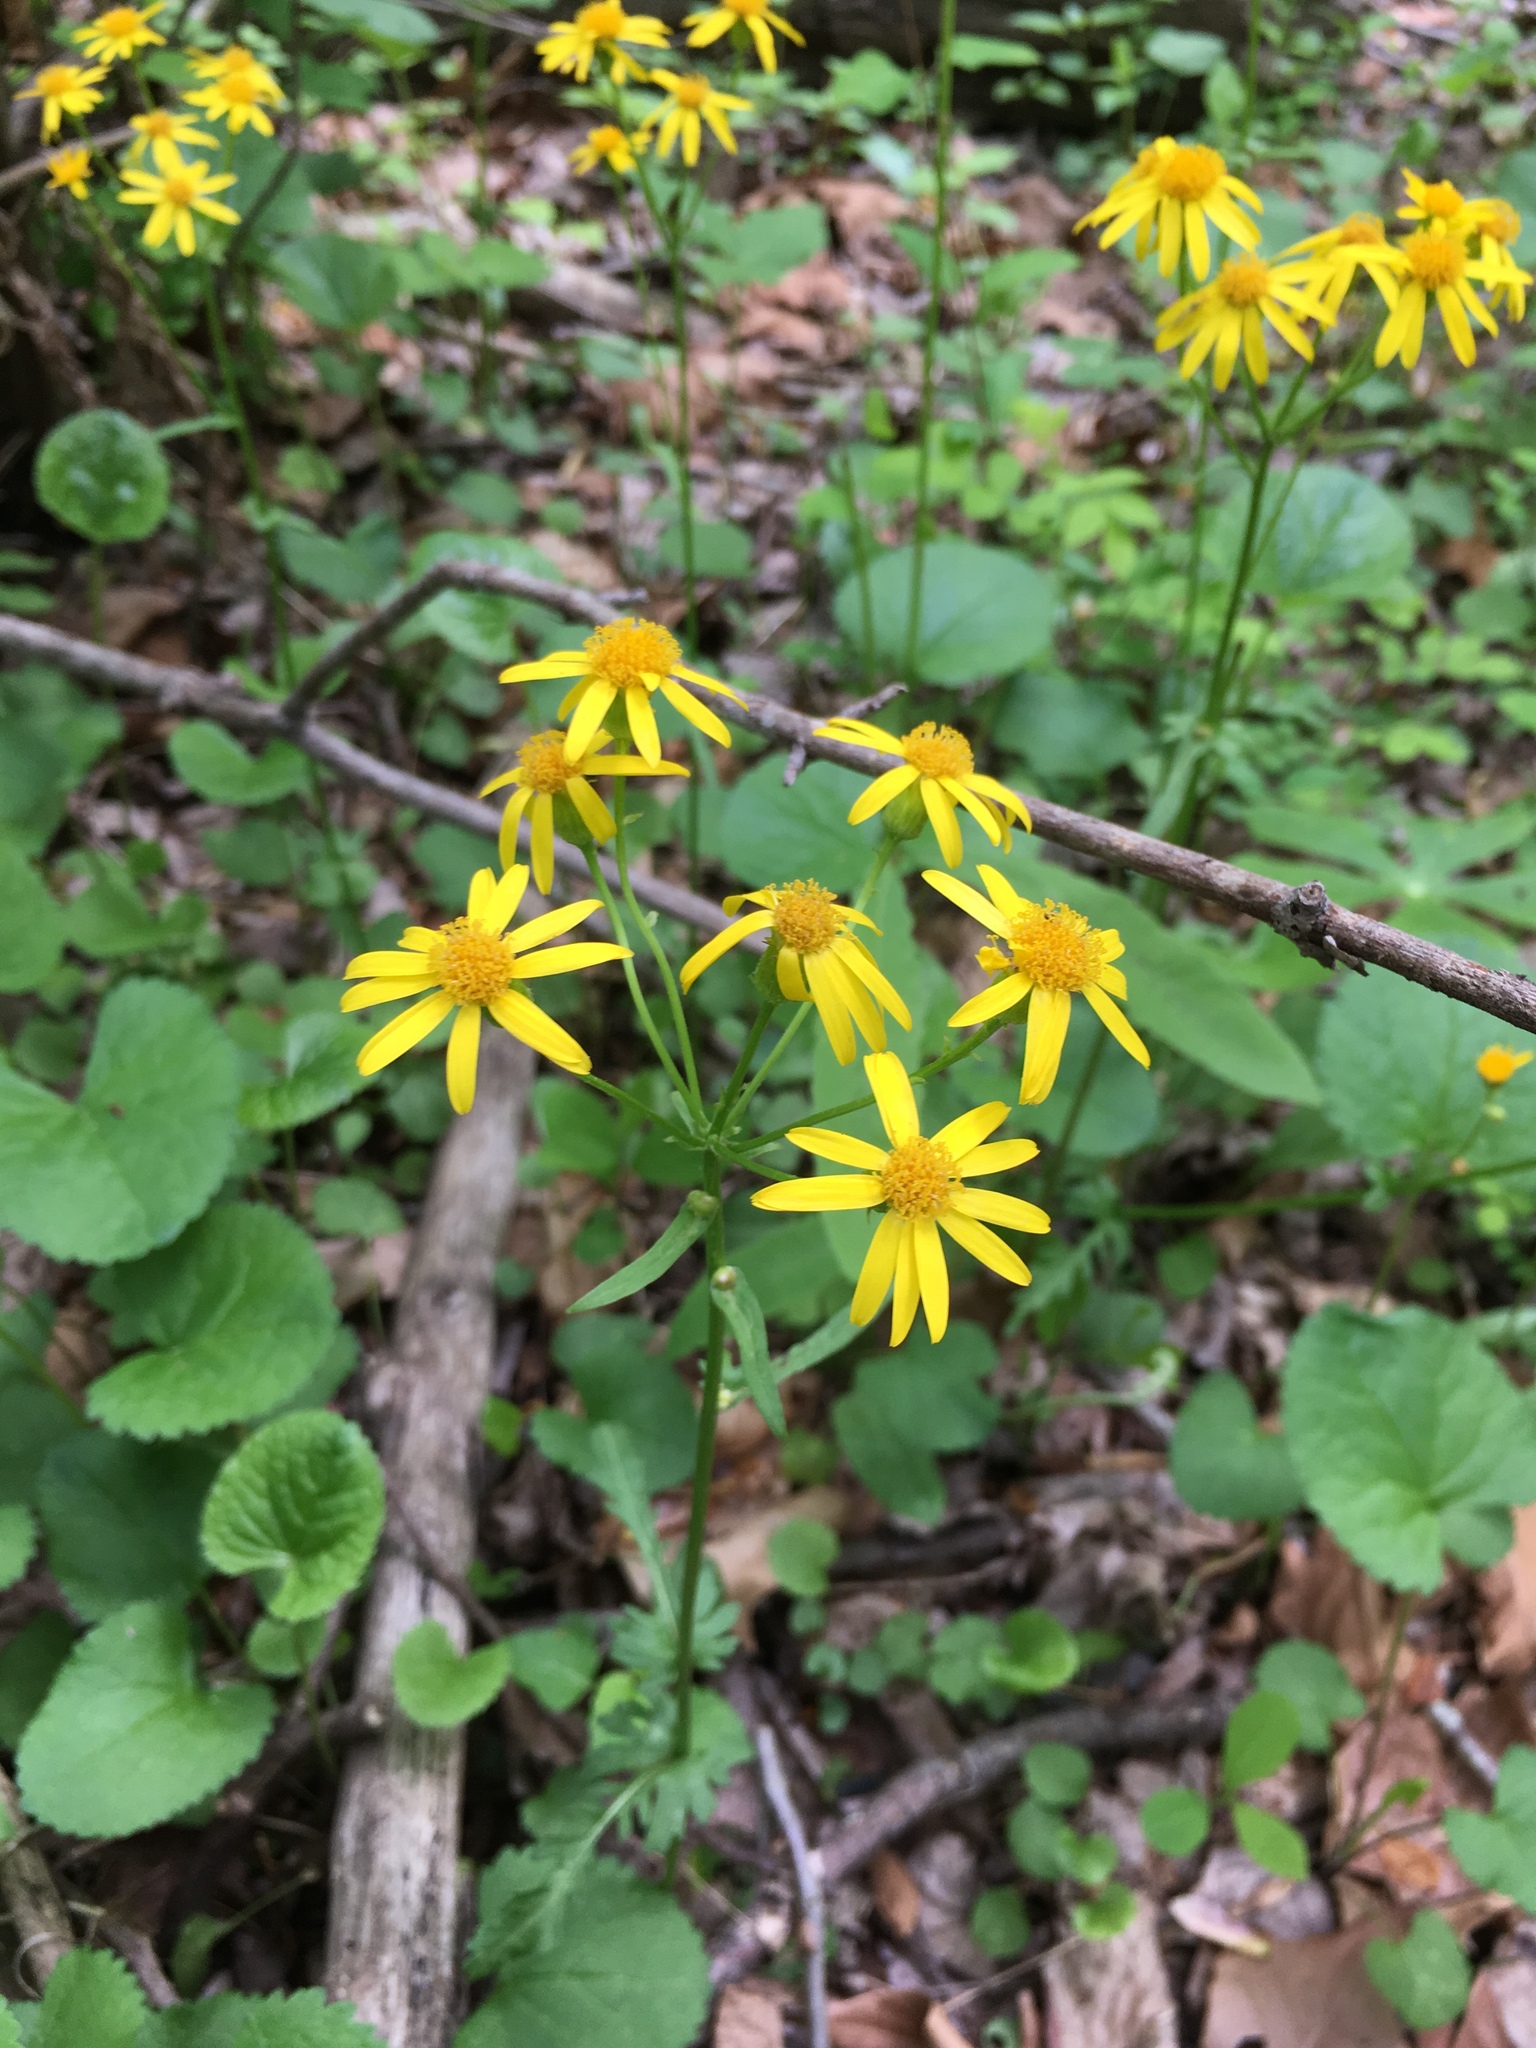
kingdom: Plantae
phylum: Tracheophyta
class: Magnoliopsida
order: Asterales
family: Asteraceae
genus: Packera
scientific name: Packera aurea
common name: Golden groundsel
